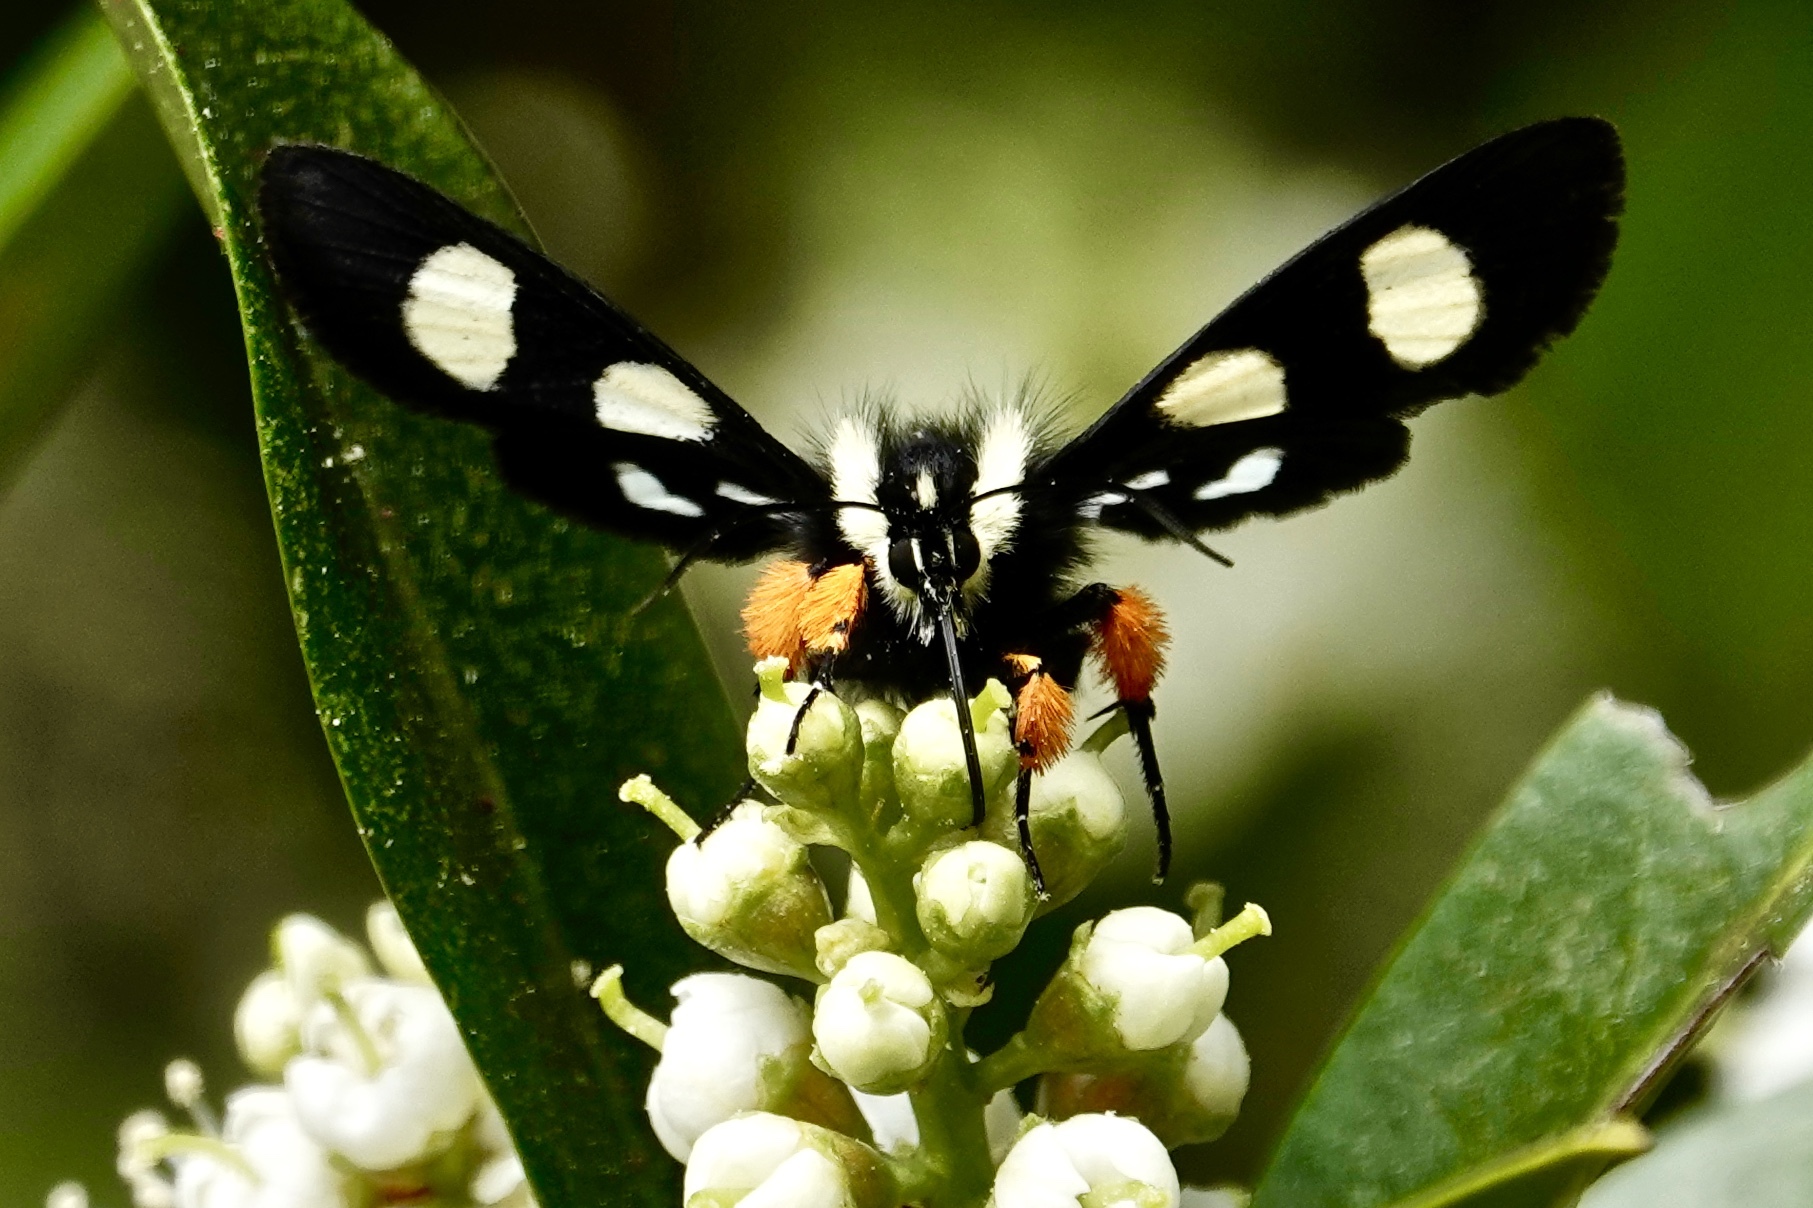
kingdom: Animalia
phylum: Arthropoda
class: Insecta
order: Lepidoptera
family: Noctuidae
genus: Alypia
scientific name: Alypia octomaculata
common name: Eight-spotted forester
